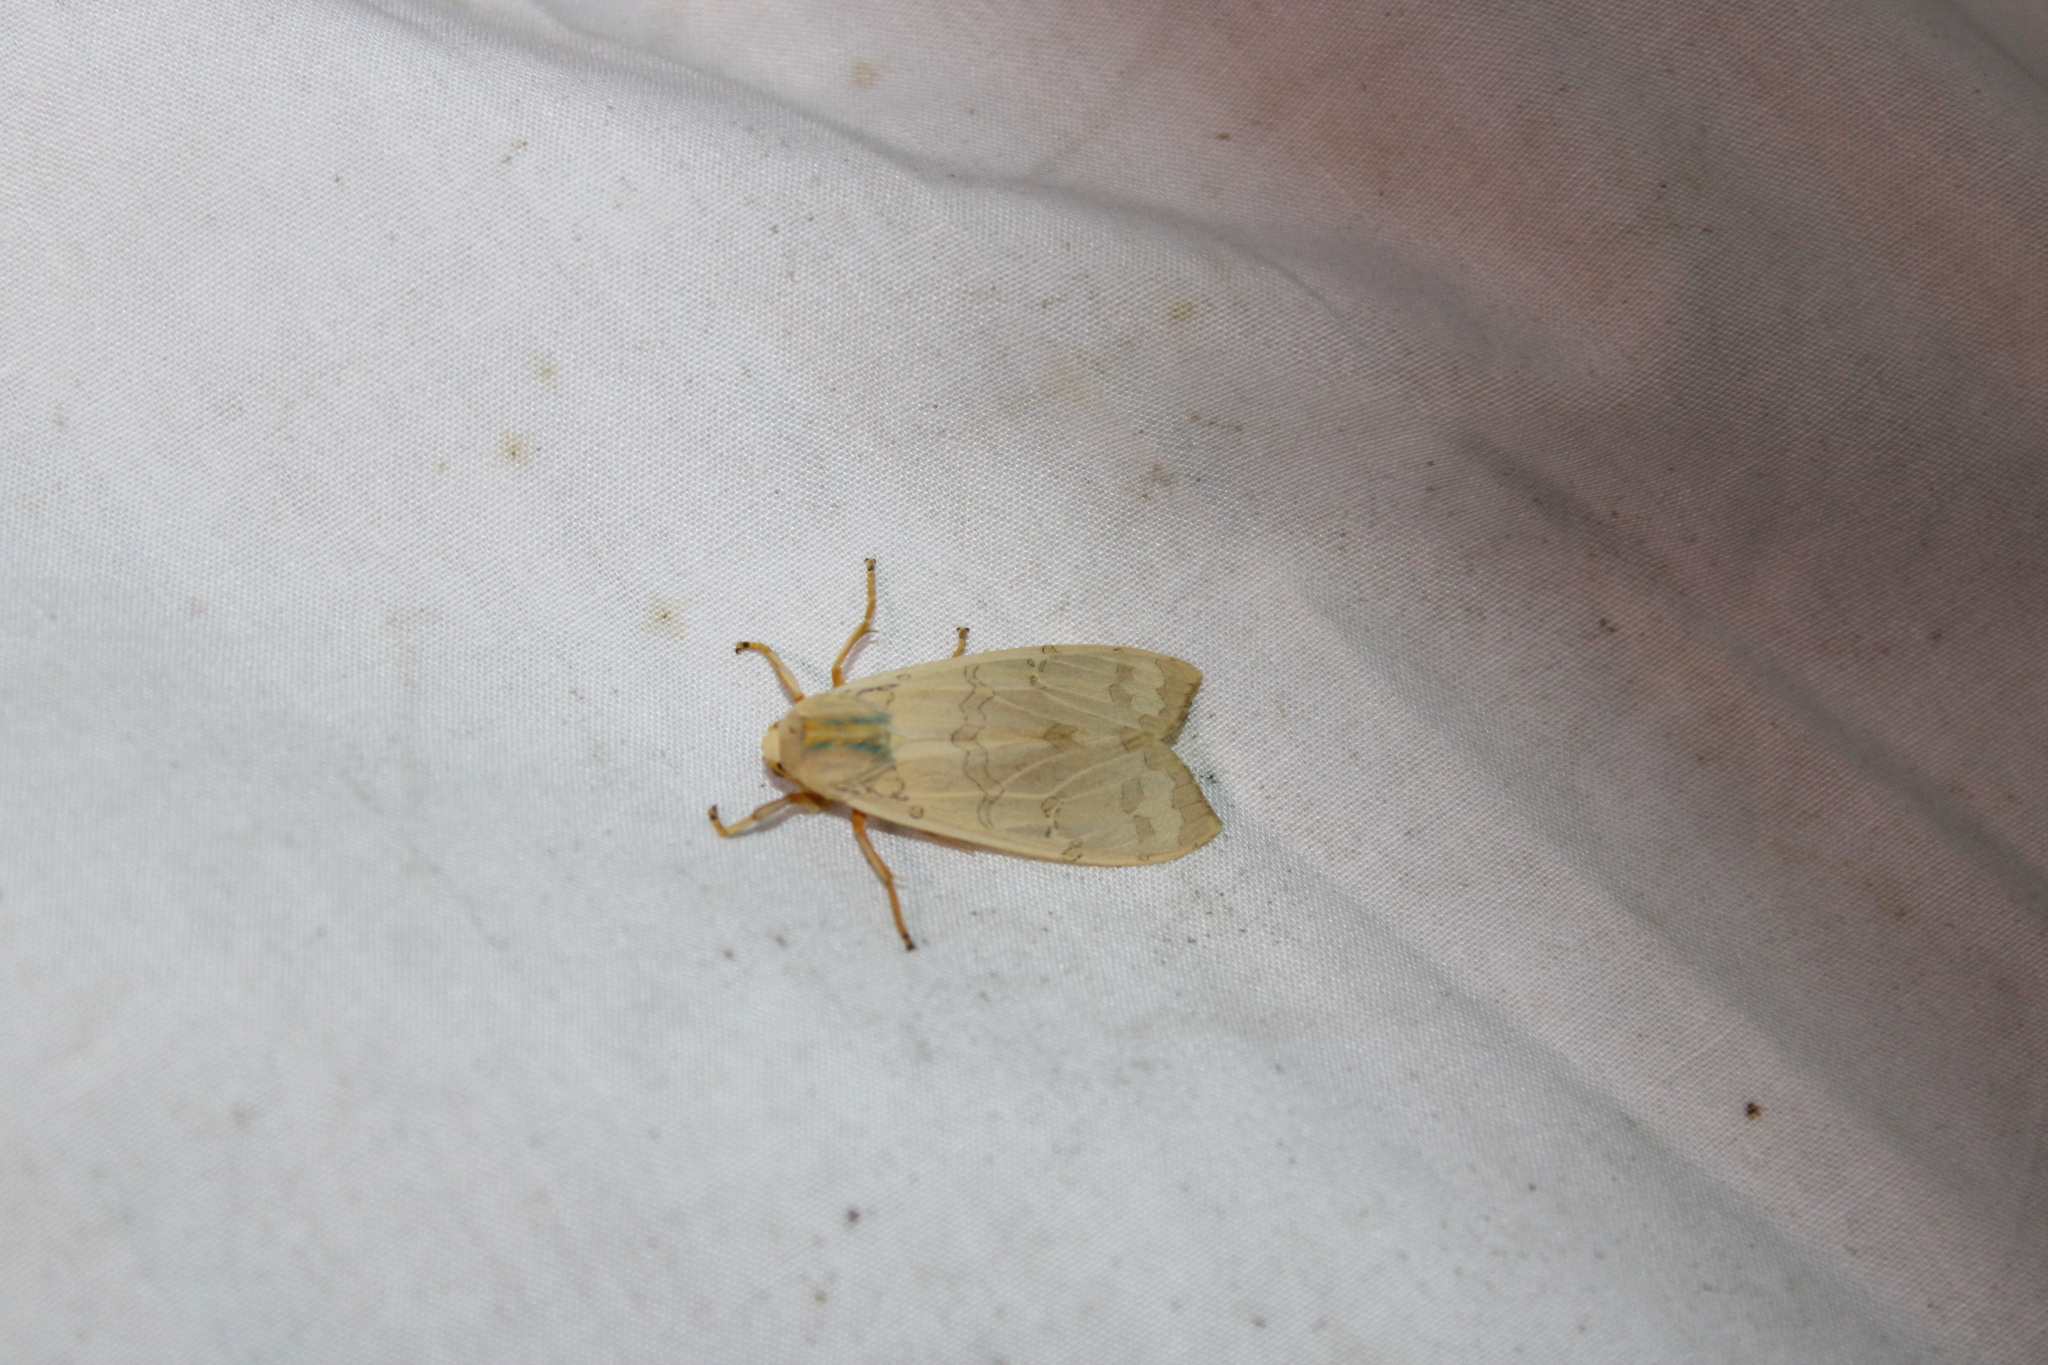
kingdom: Animalia
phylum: Arthropoda
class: Insecta
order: Lepidoptera
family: Erebidae
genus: Halysidota
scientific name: Halysidota
